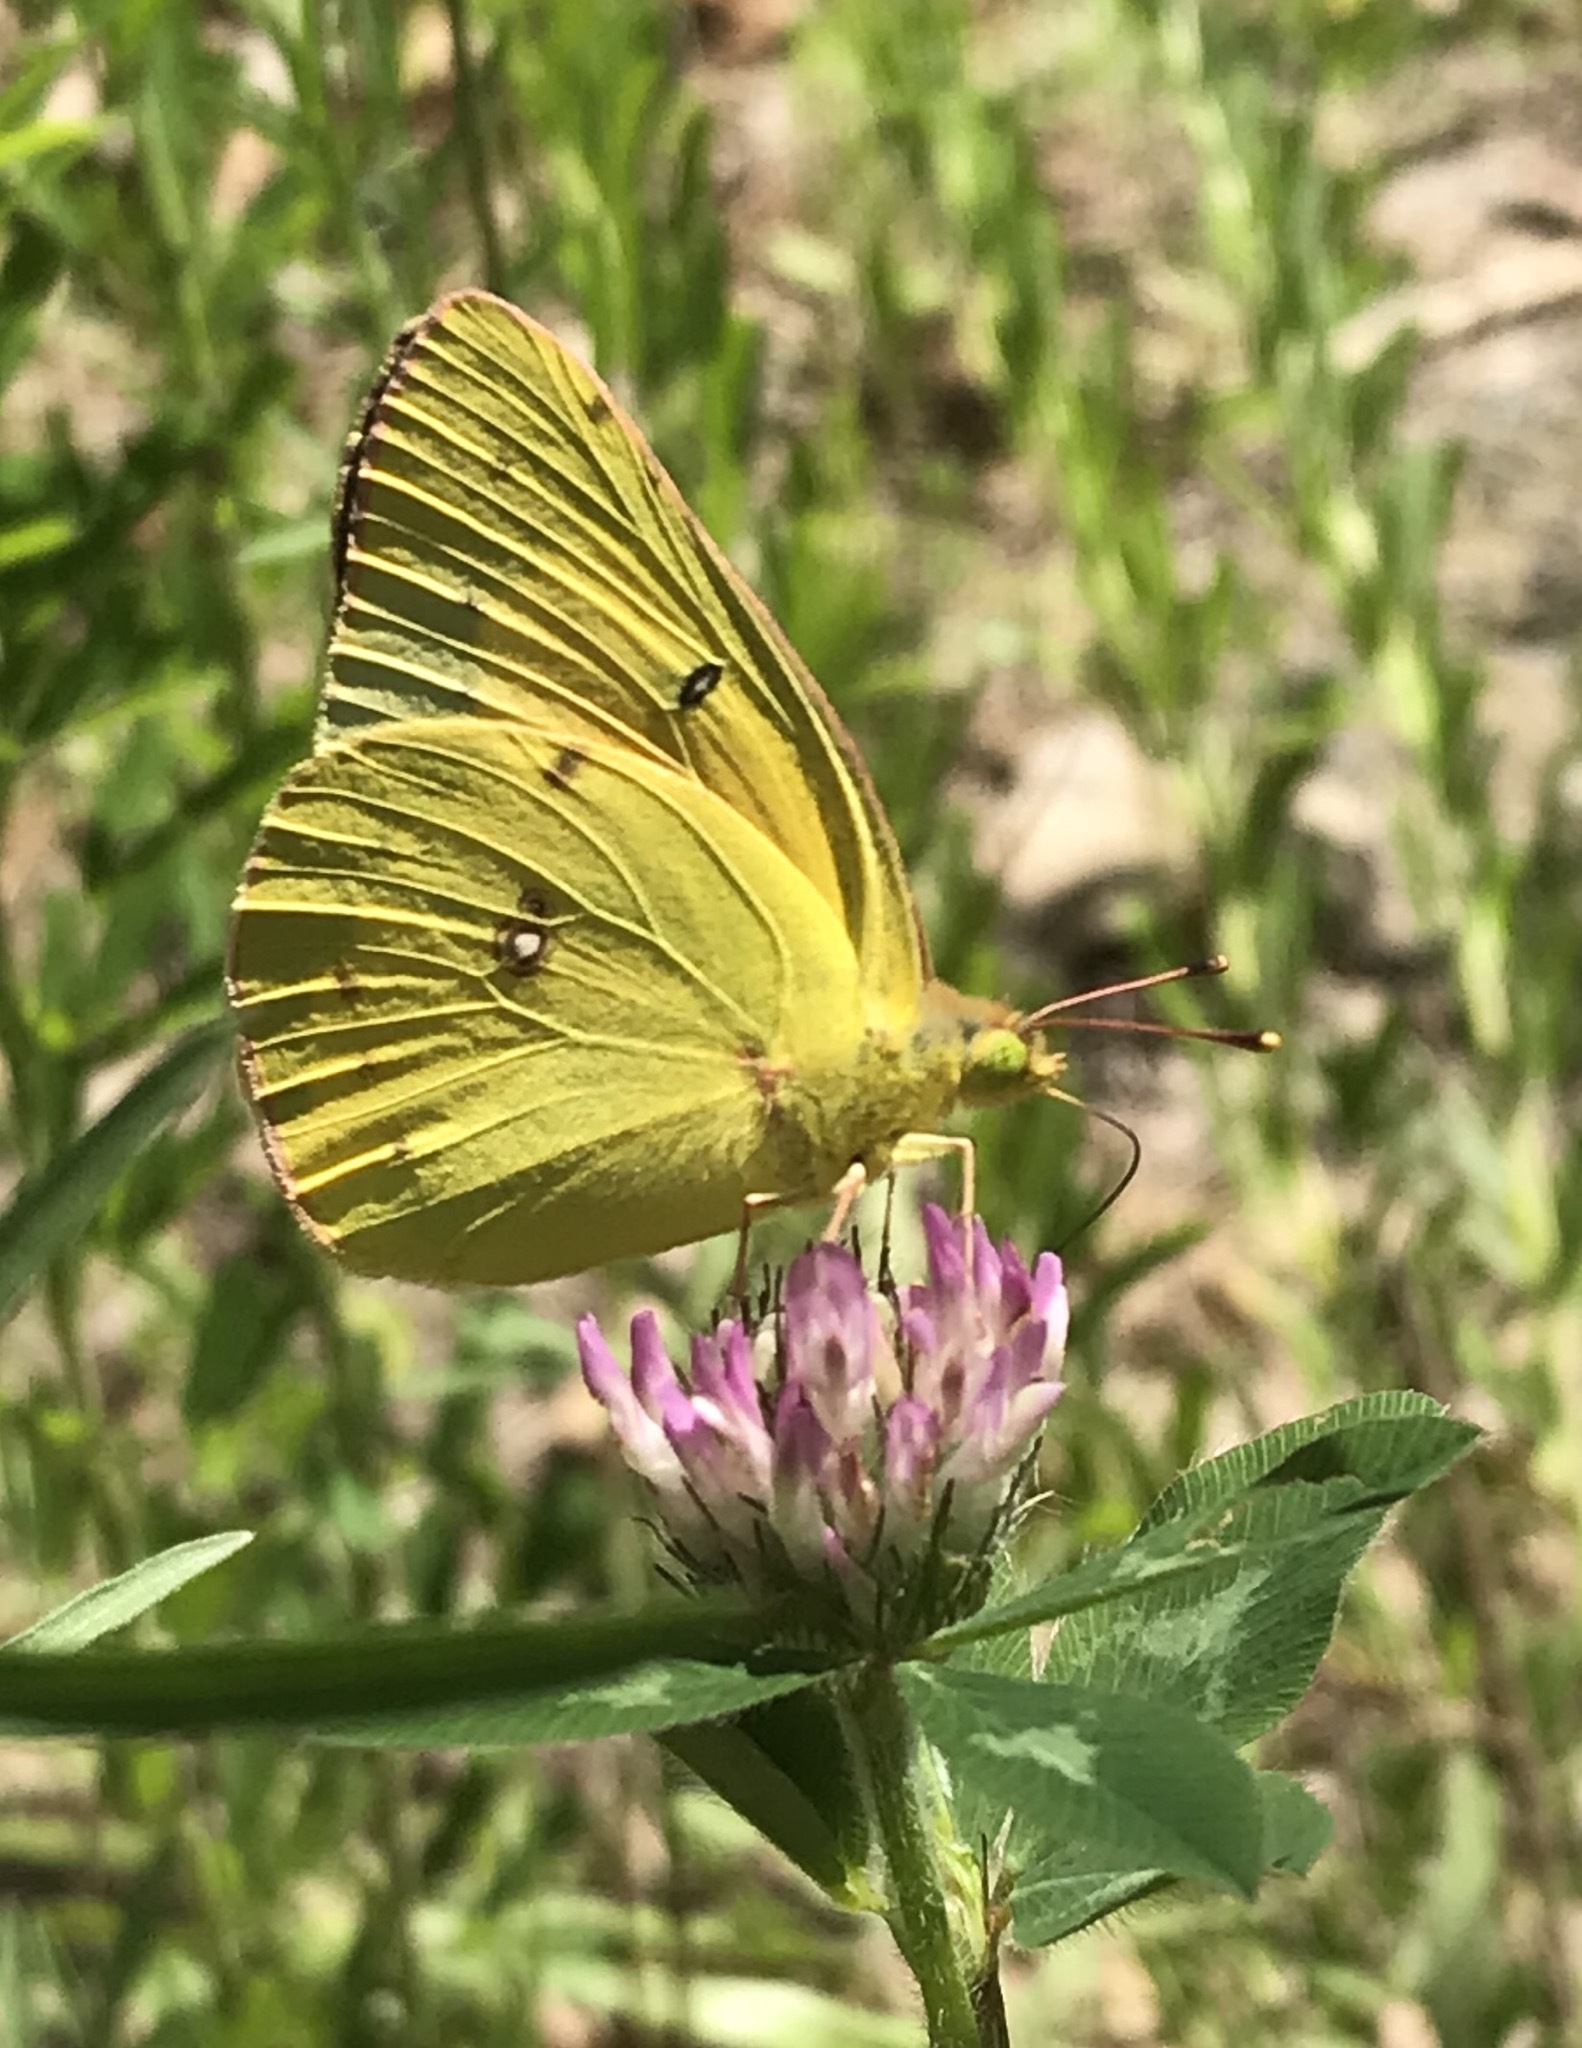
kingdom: Animalia
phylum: Arthropoda
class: Insecta
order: Lepidoptera
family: Pieridae
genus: Colias
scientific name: Colias eurytheme
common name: Alfalfa butterfly
